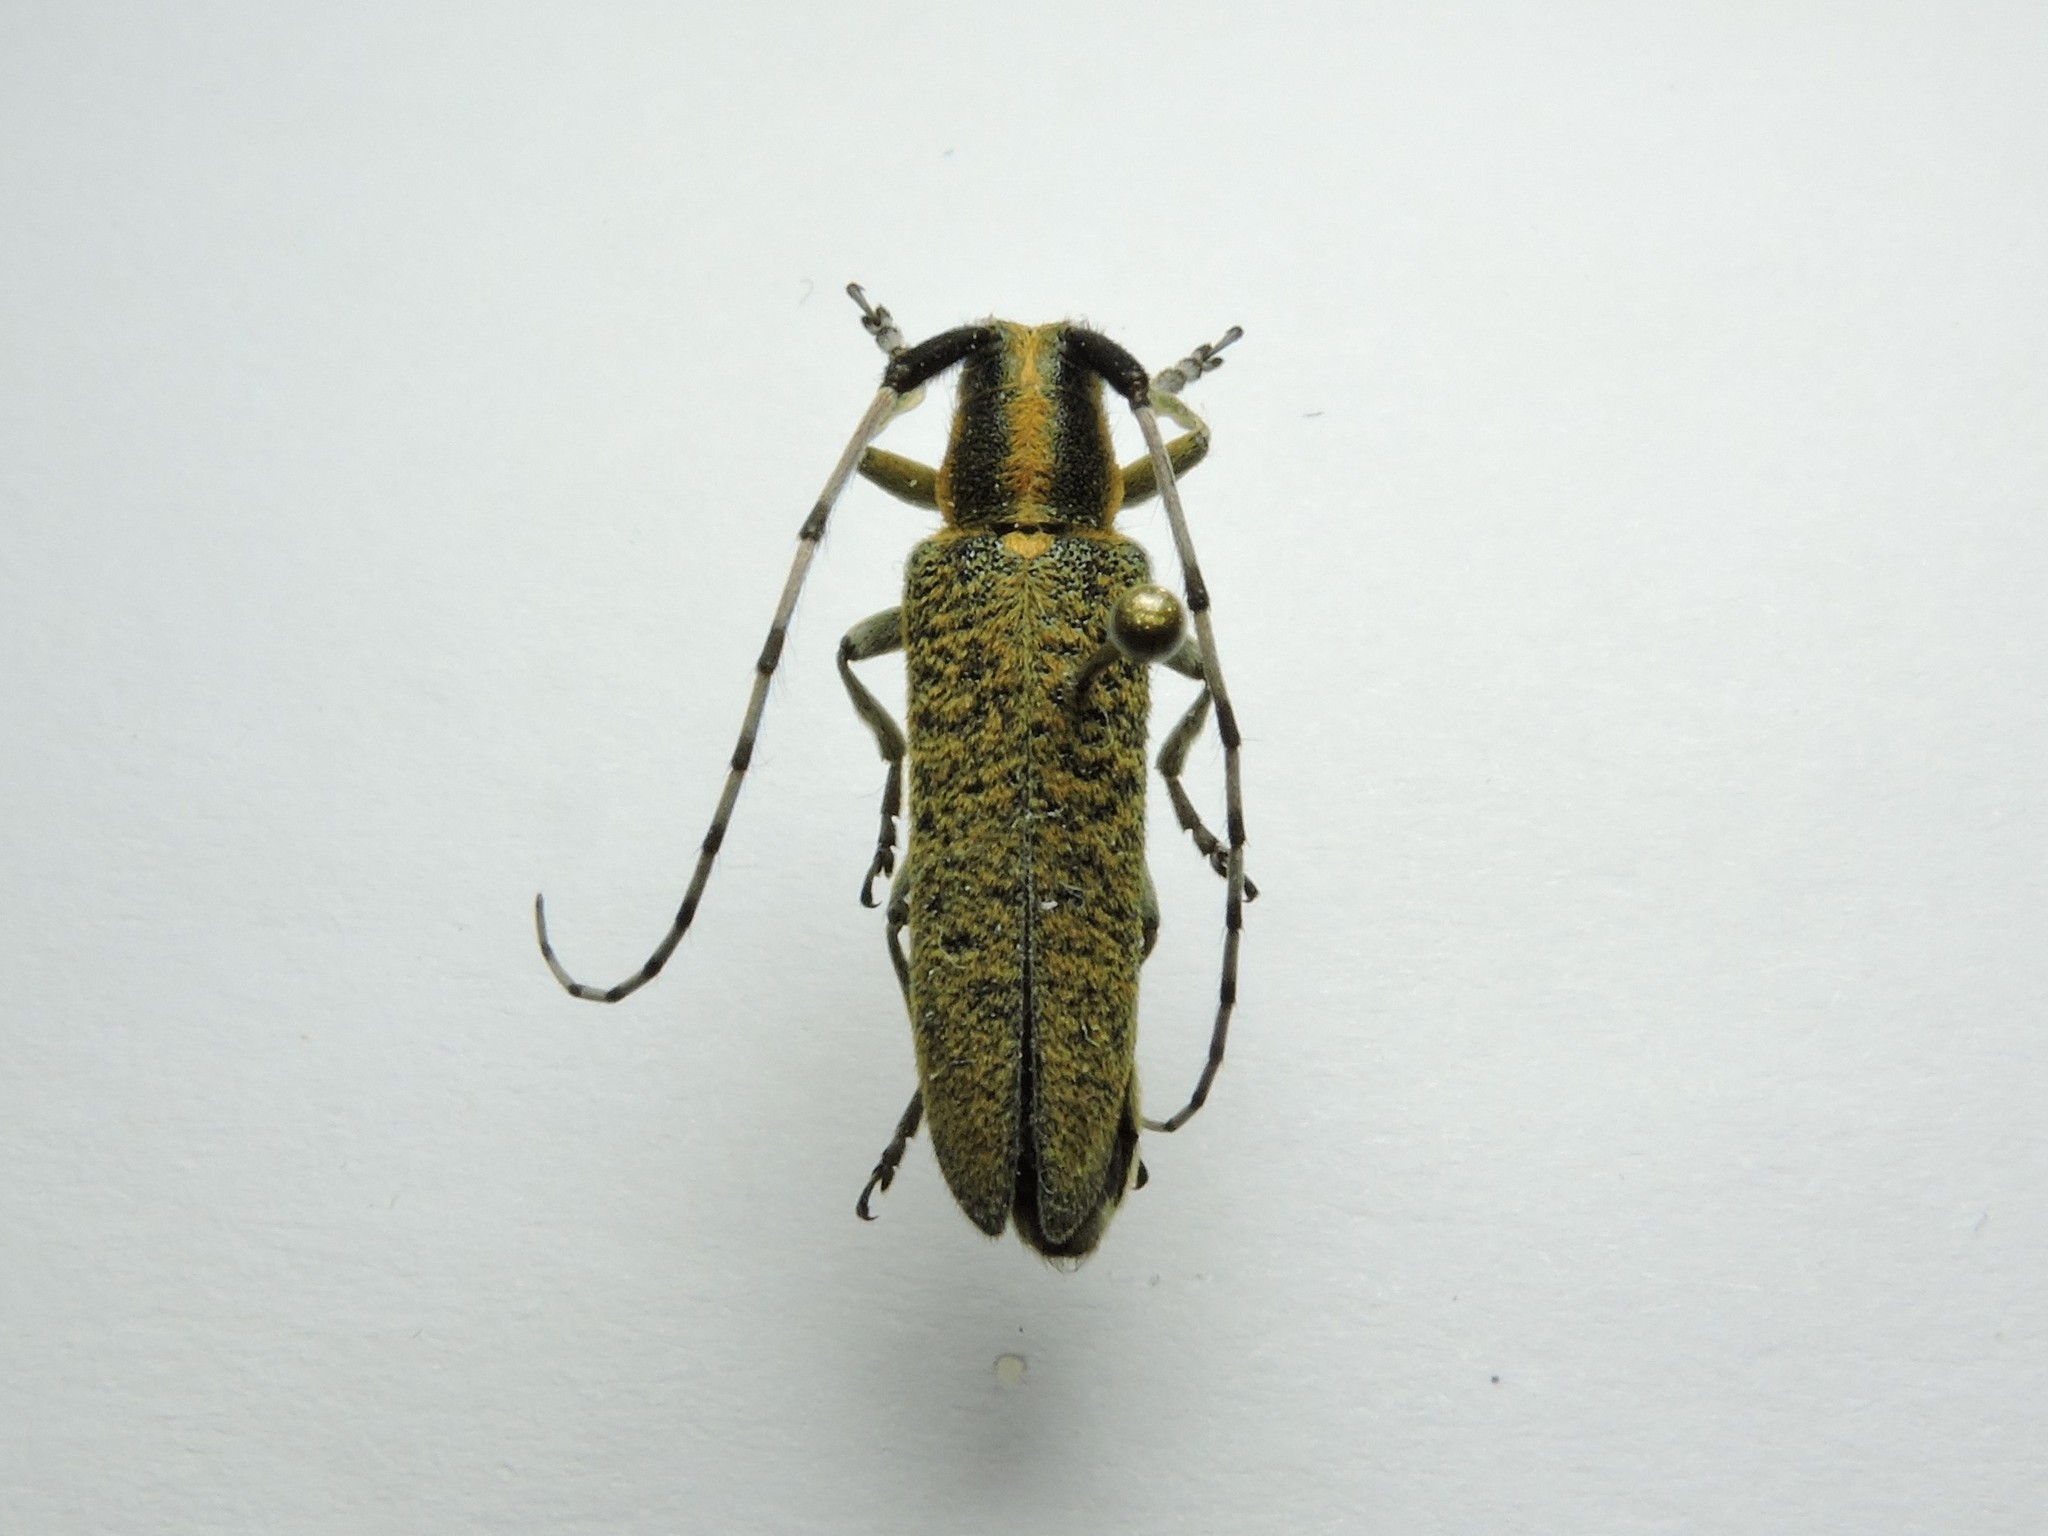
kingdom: Animalia
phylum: Arthropoda
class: Insecta
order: Coleoptera
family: Cerambycidae
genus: Agapanthia
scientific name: Agapanthia villosoviridescens
